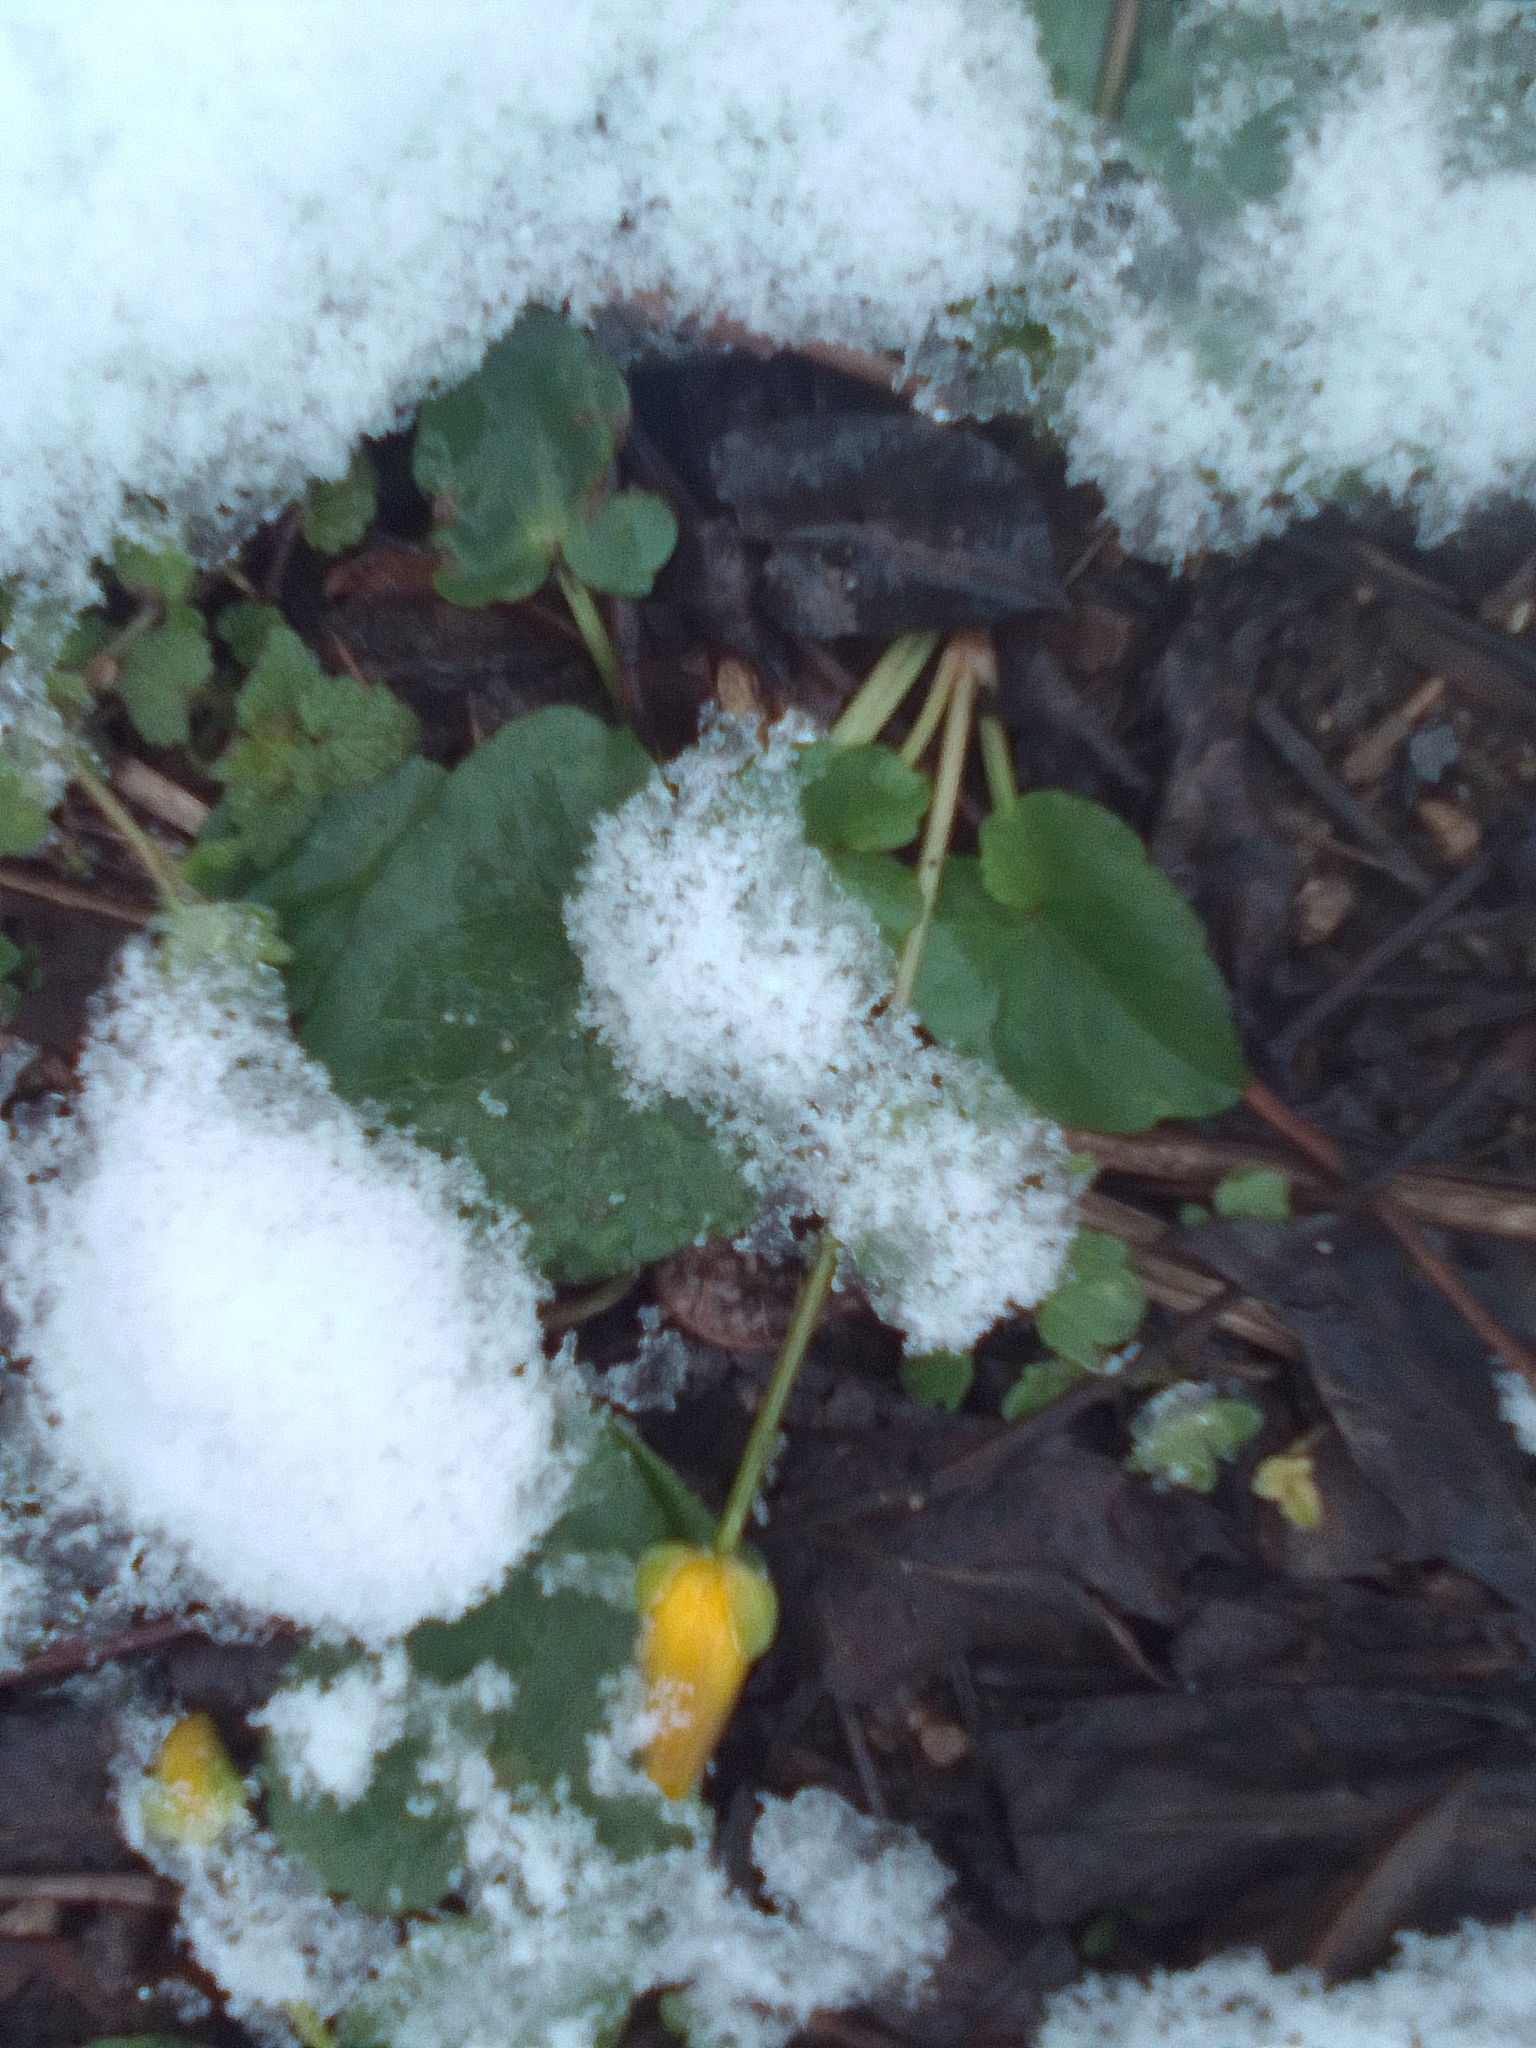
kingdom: Plantae
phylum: Tracheophyta
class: Magnoliopsida
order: Ranunculales
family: Ranunculaceae
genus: Ficaria
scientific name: Ficaria verna
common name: Lesser celandine
